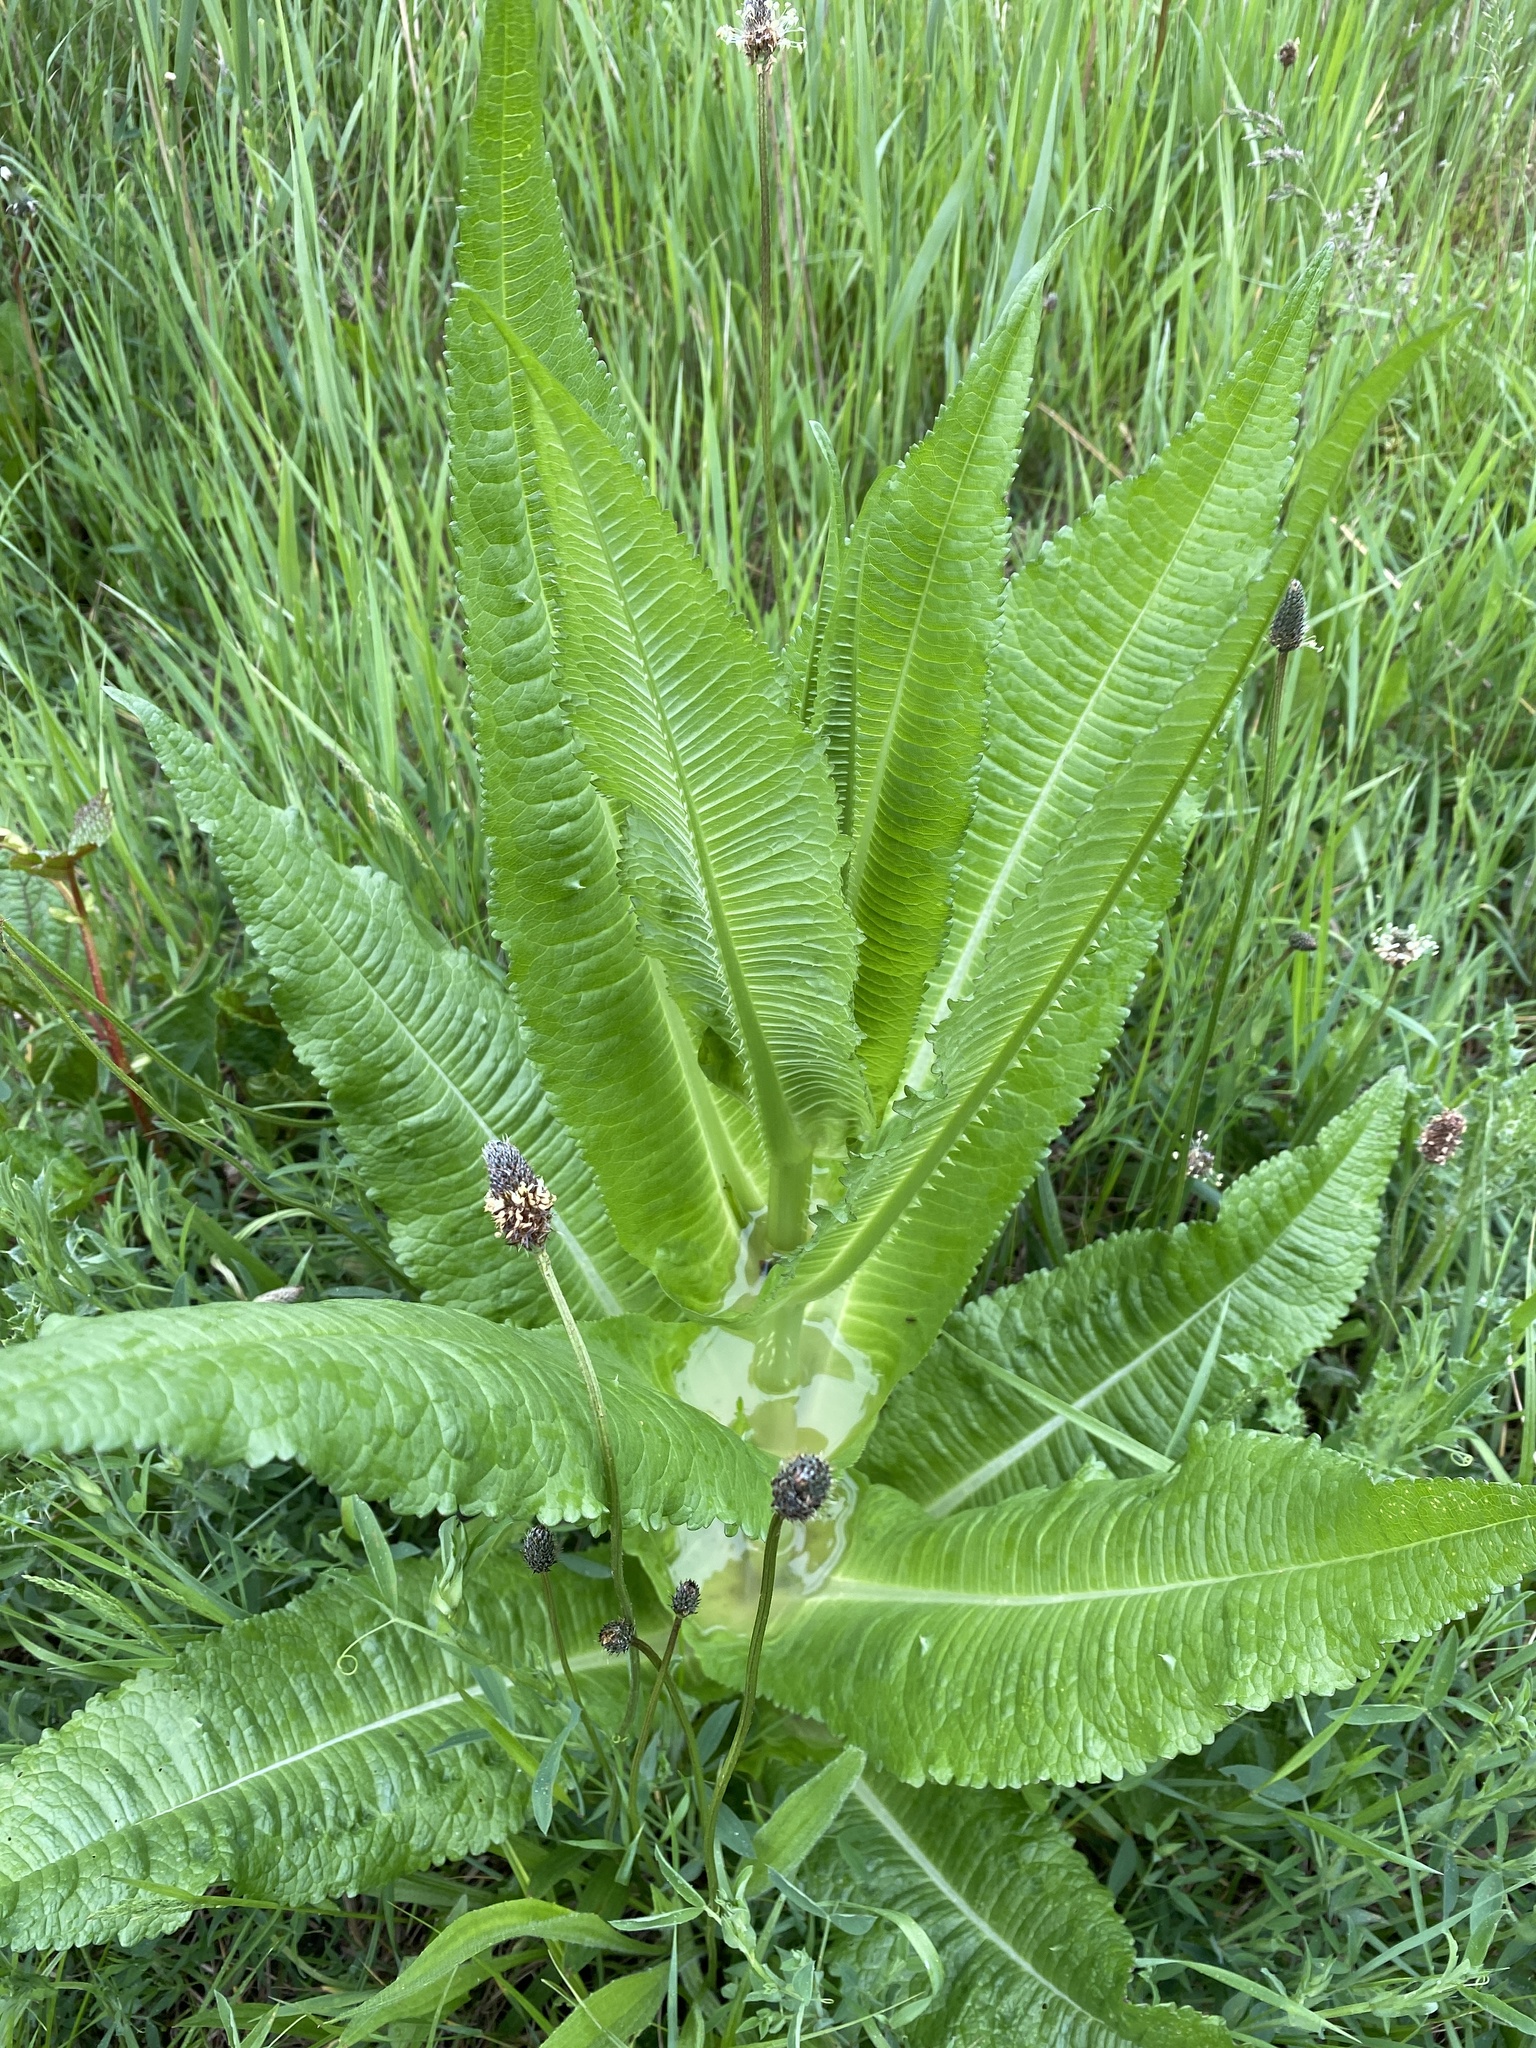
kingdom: Plantae
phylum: Tracheophyta
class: Magnoliopsida
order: Dipsacales
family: Caprifoliaceae
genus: Dipsacus
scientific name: Dipsacus fullonum
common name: Teasel
